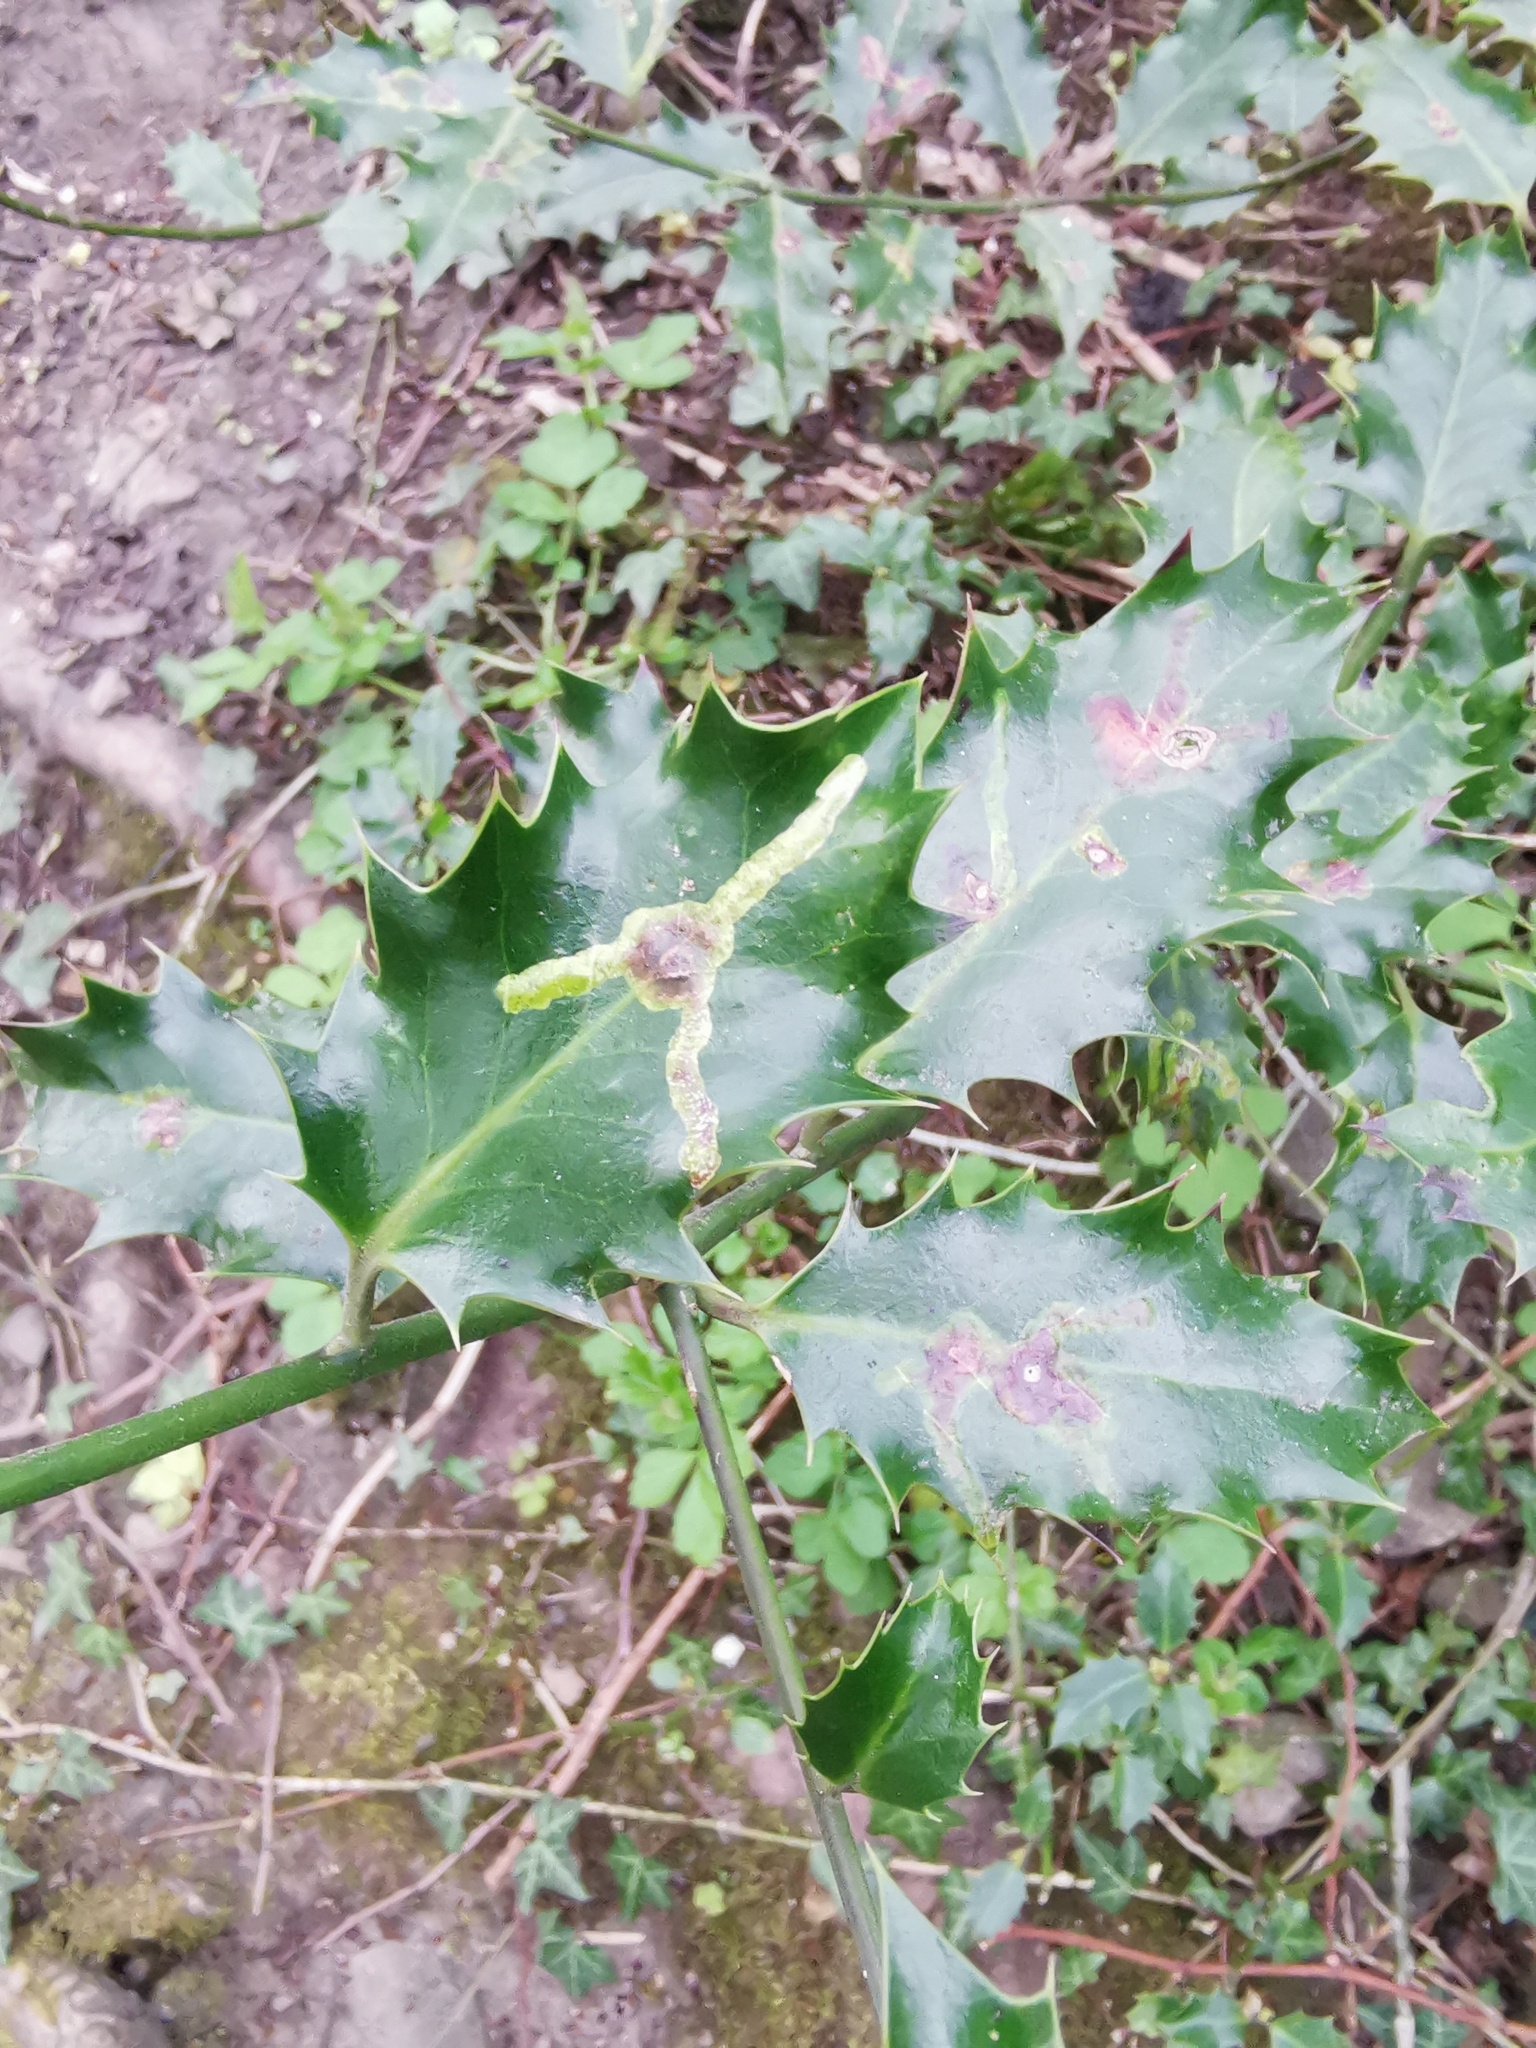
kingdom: Animalia
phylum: Arthropoda
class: Insecta
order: Diptera
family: Agromyzidae
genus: Phytomyza
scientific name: Phytomyza ilicis
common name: Holly leafminer
